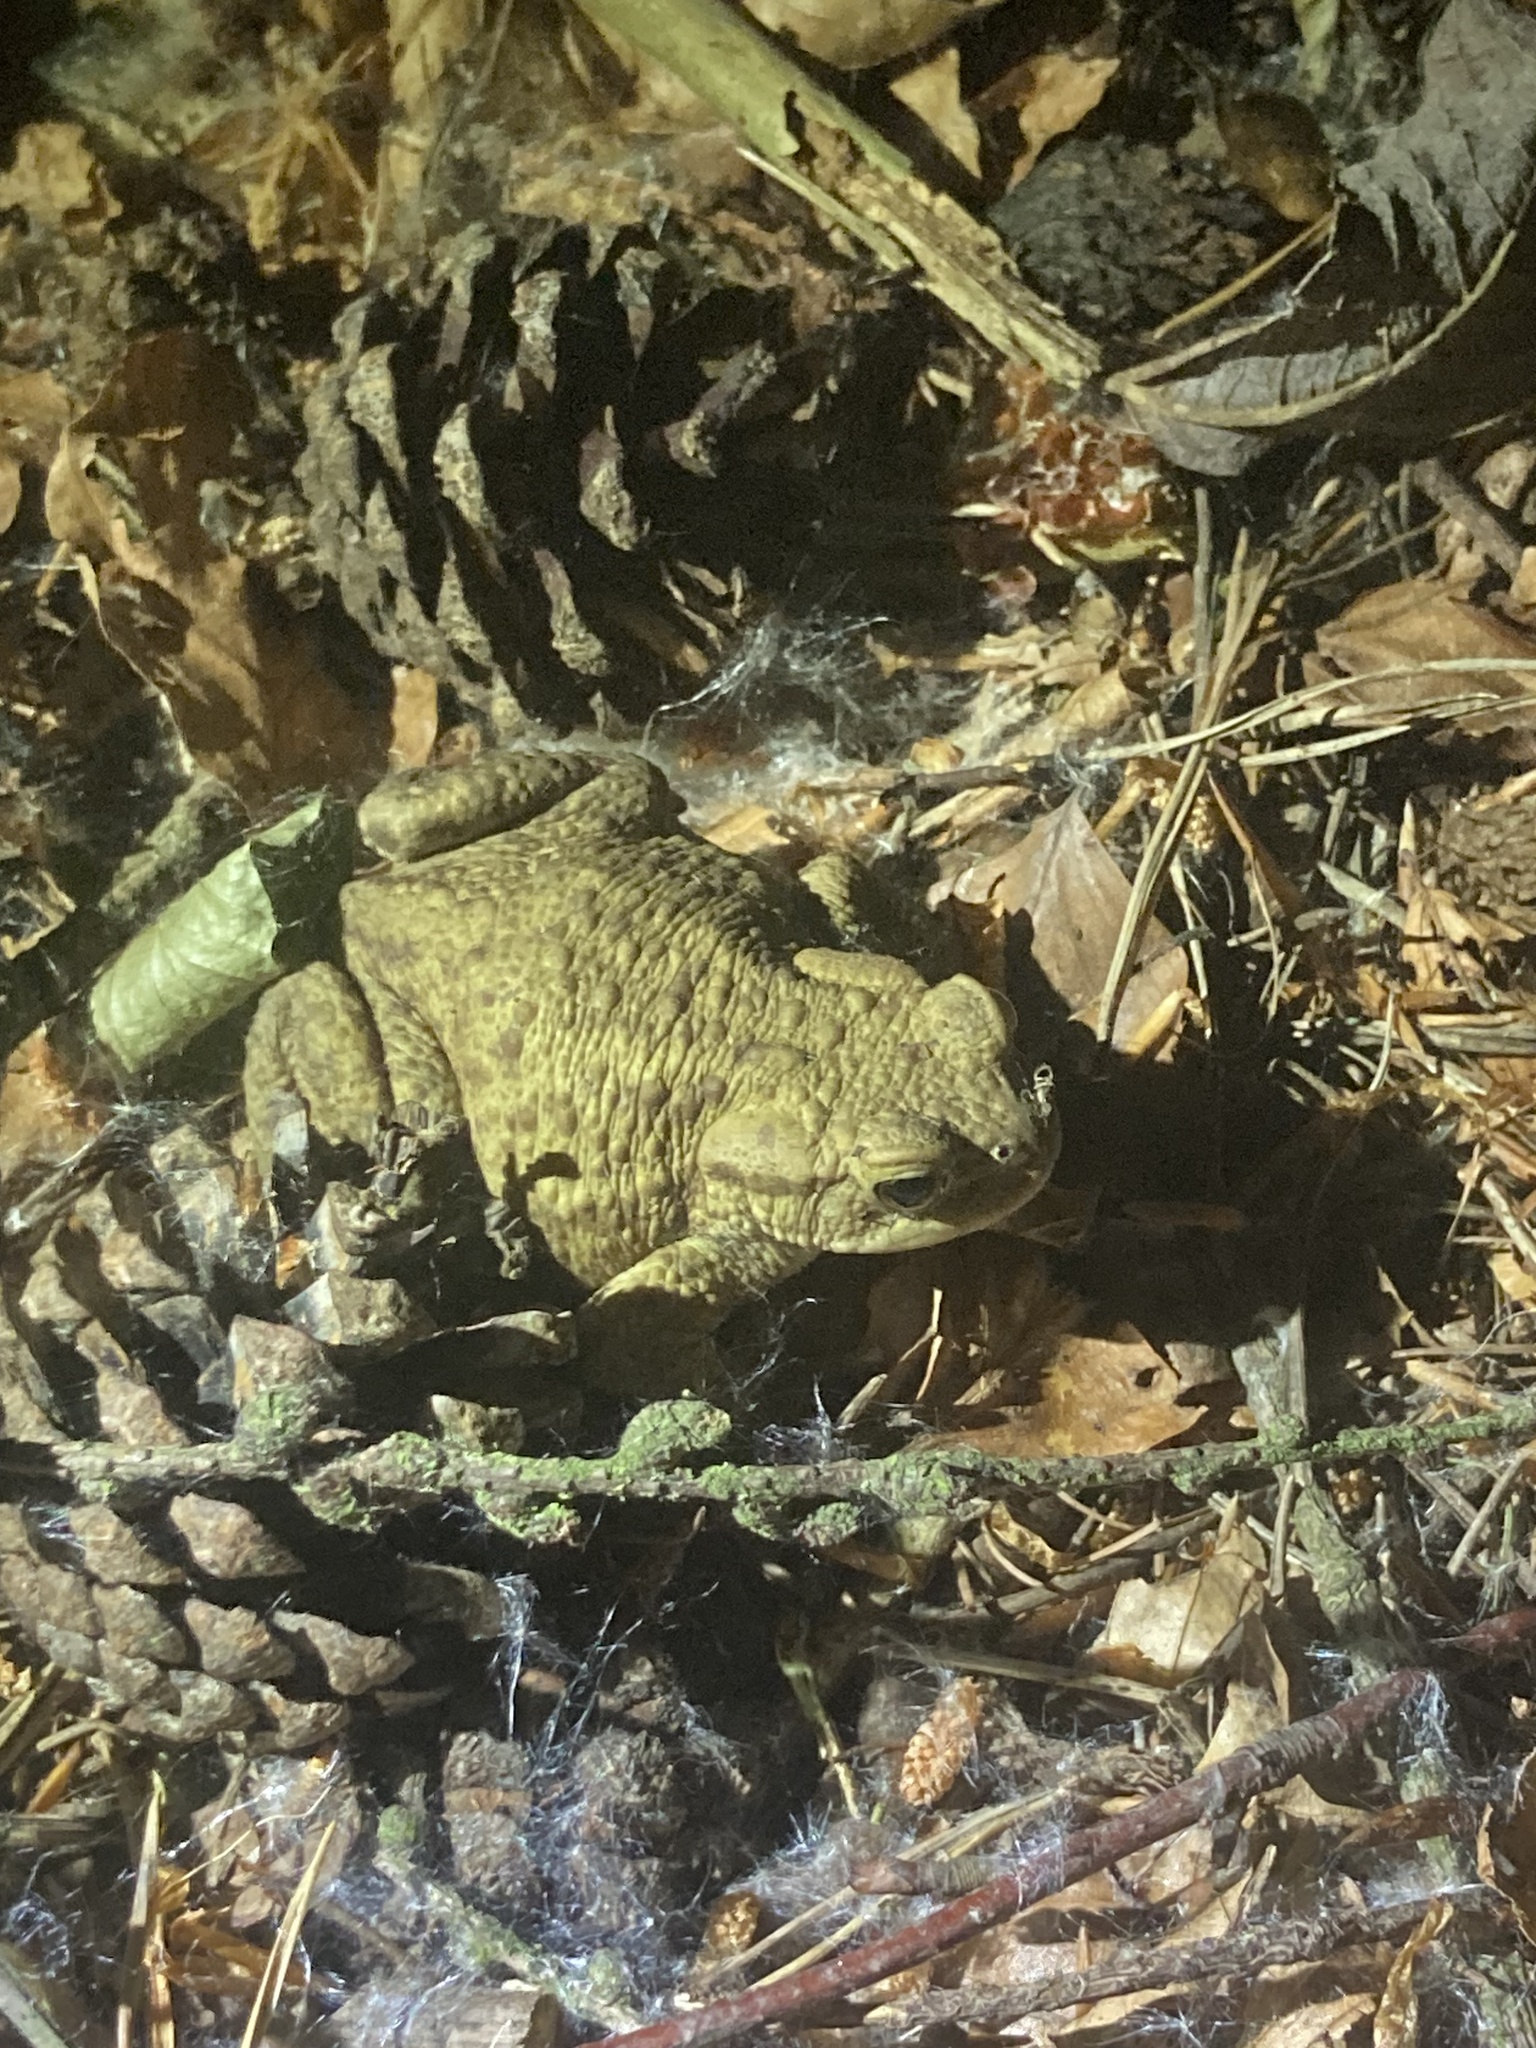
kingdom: Animalia
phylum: Chordata
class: Amphibia
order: Anura
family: Bufonidae
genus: Bufo
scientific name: Bufo bufo
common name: Common toad
